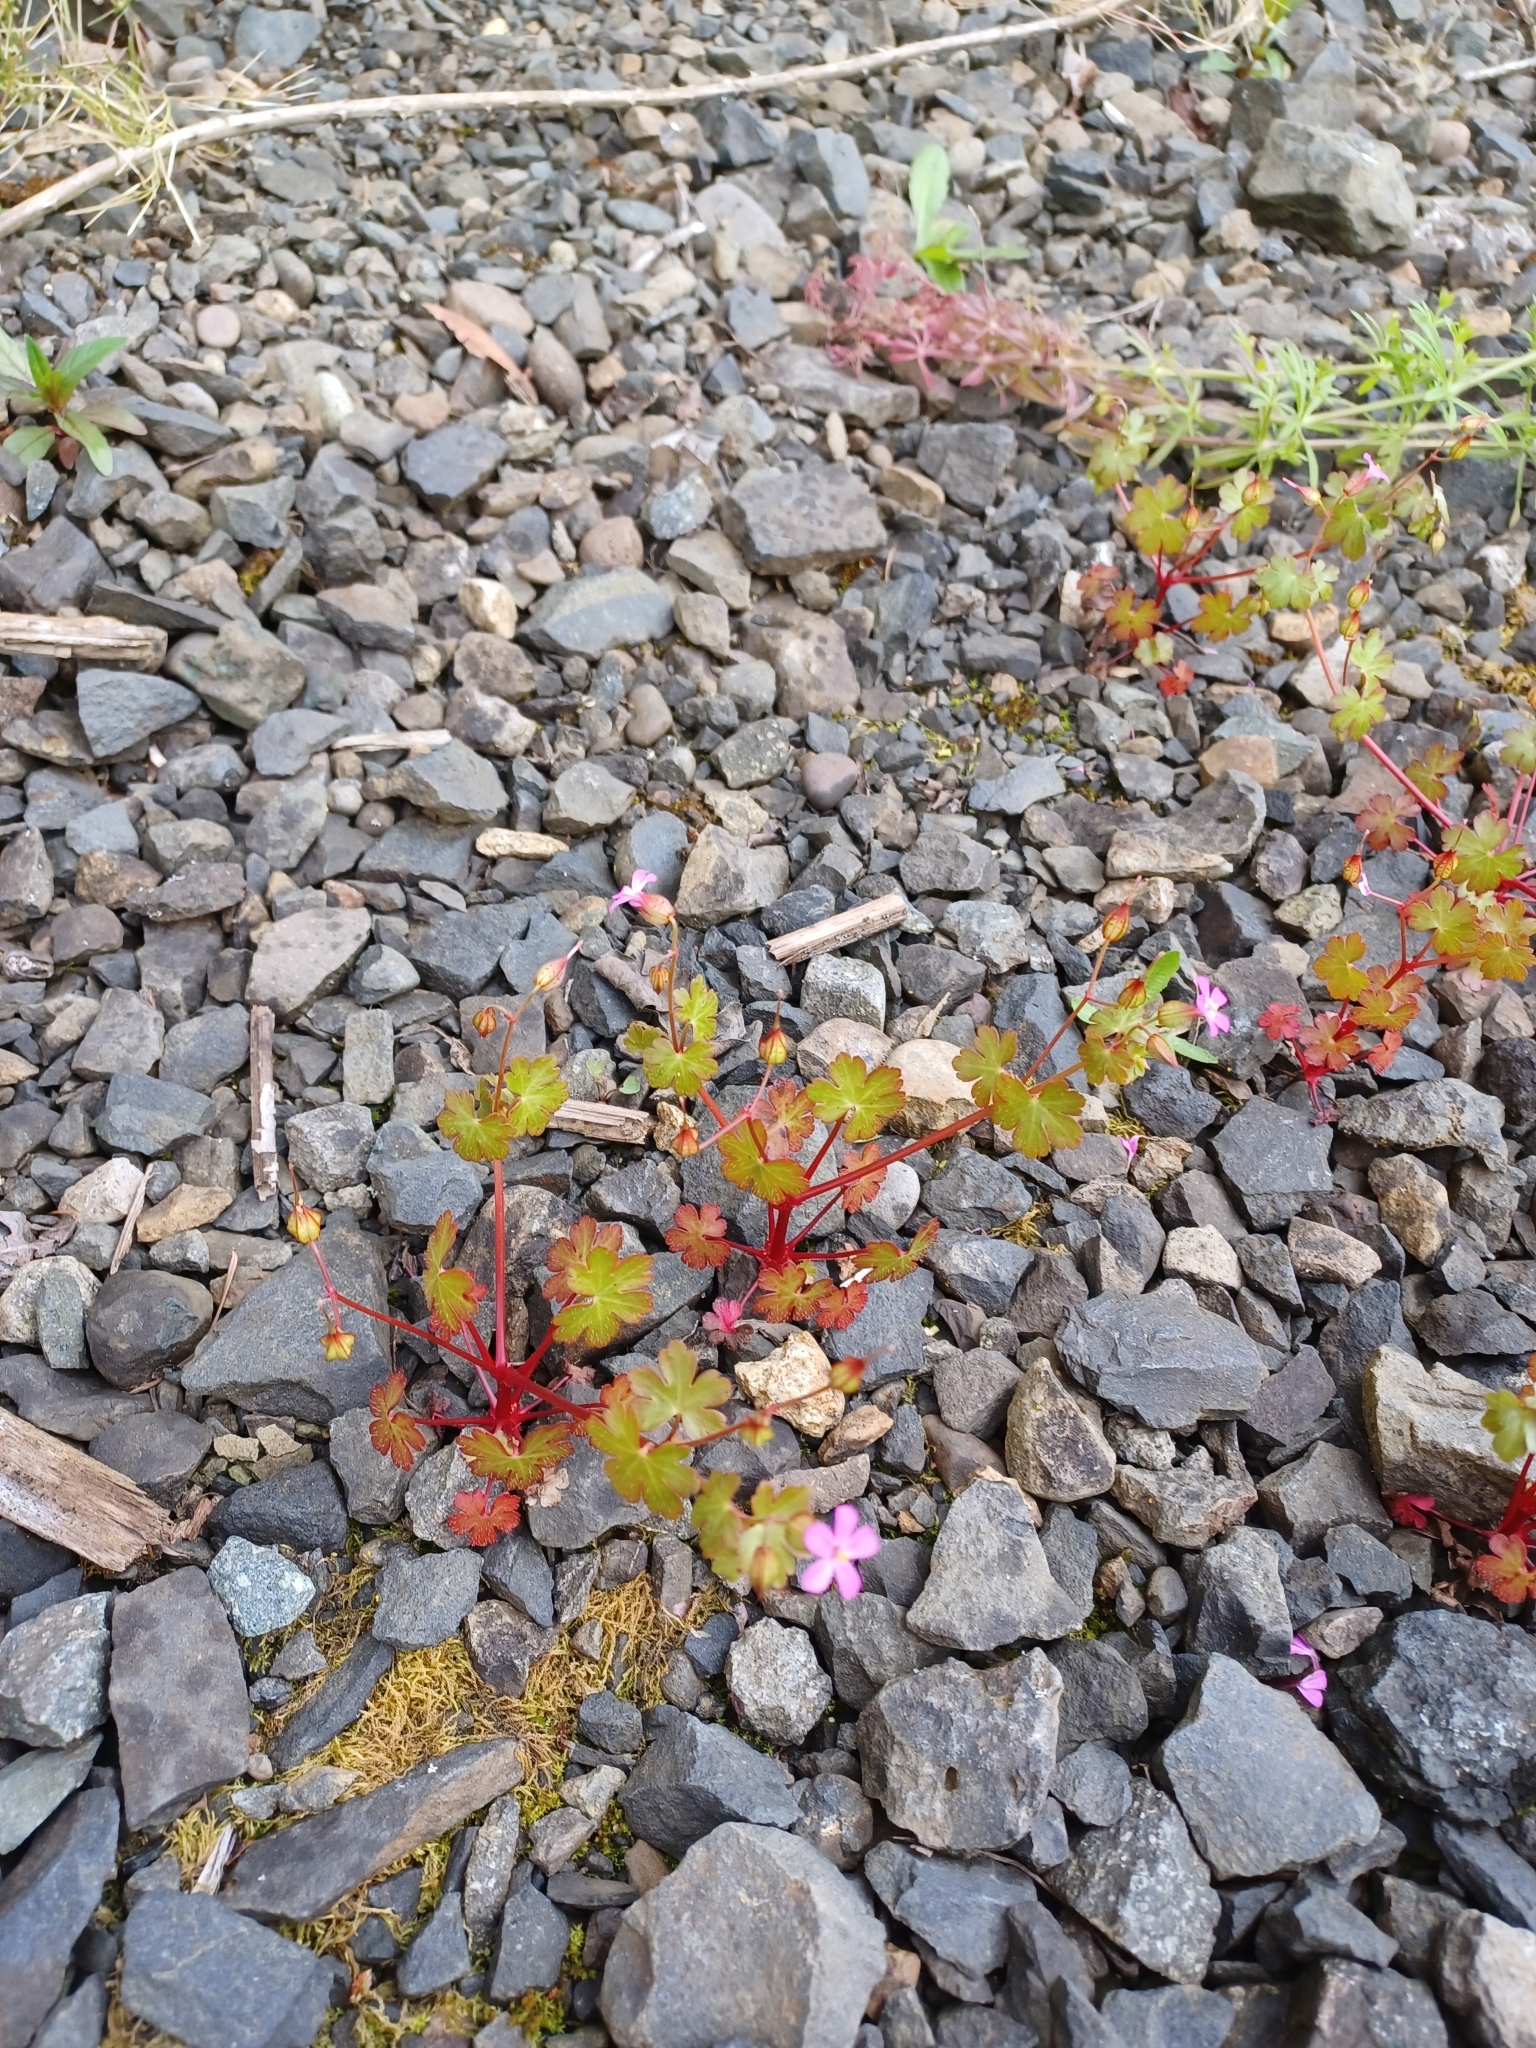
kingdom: Plantae
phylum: Tracheophyta
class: Magnoliopsida
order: Geraniales
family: Geraniaceae
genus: Geranium
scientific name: Geranium lucidum
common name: Shining crane's-bill
